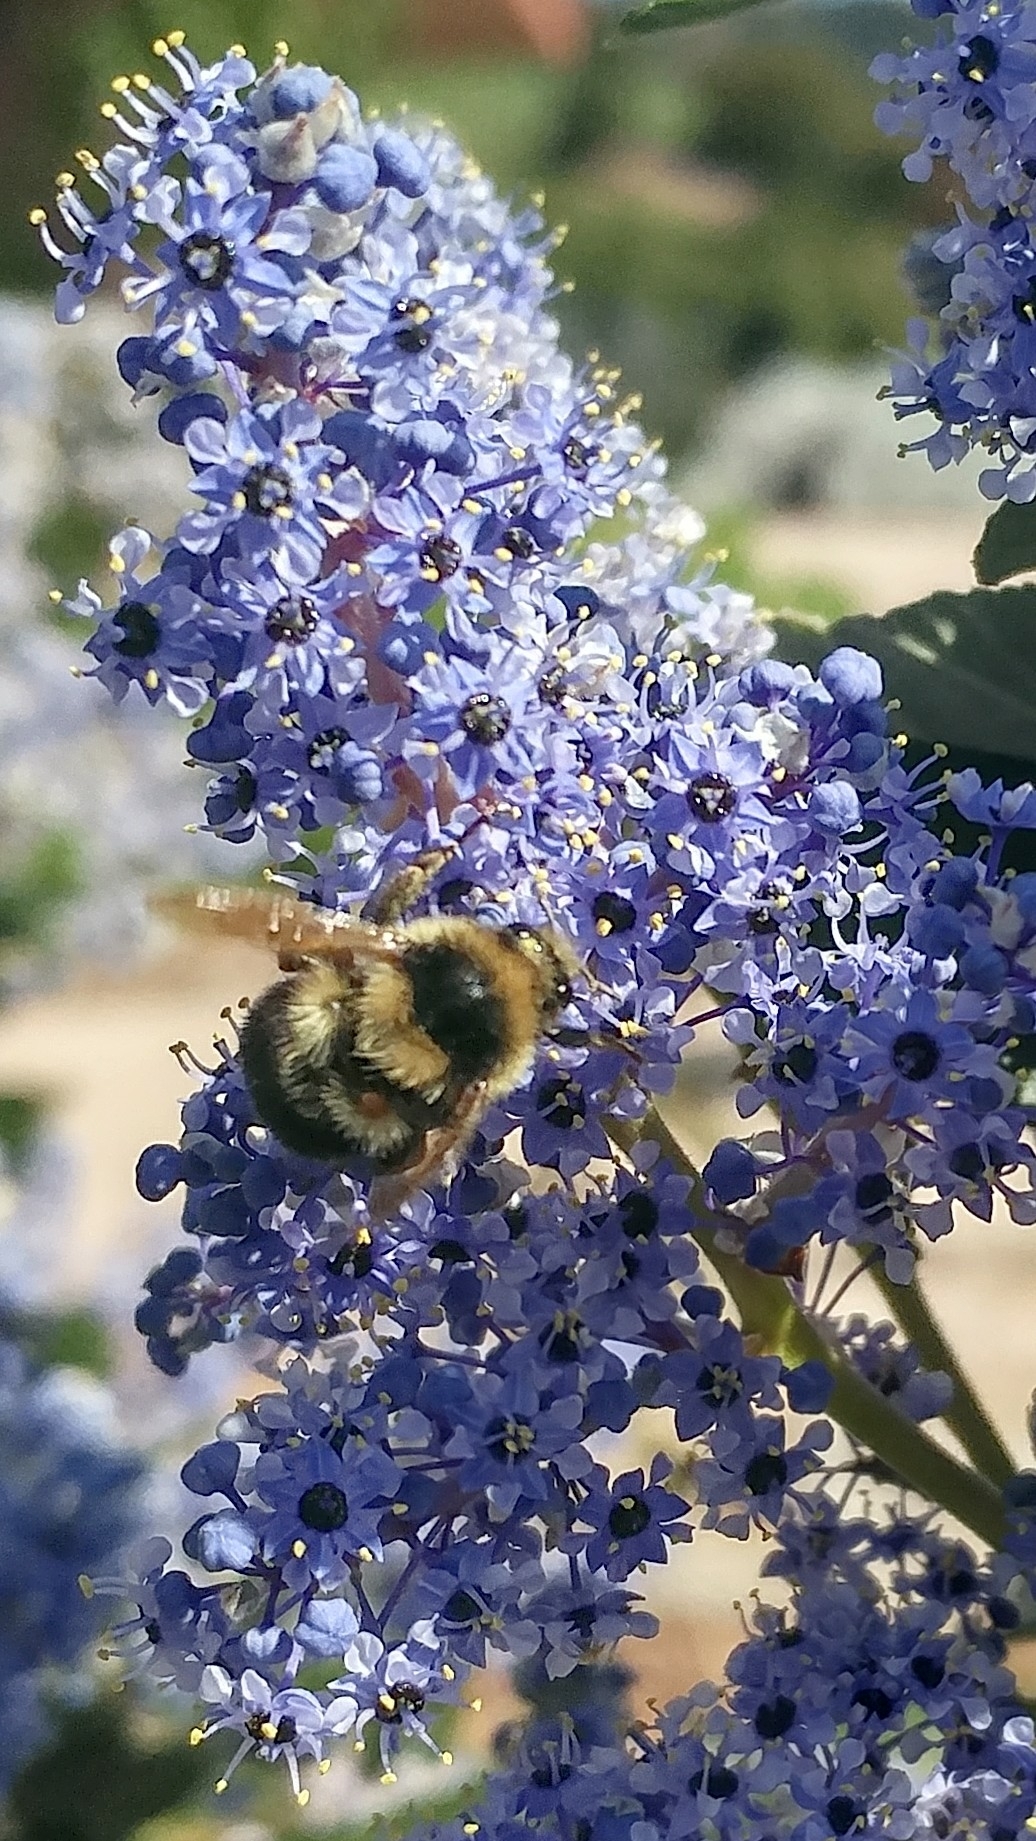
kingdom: Animalia
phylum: Arthropoda
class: Insecta
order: Hymenoptera
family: Apidae
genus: Bombus
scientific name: Bombus melanopygus
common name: Black tail bumble bee
